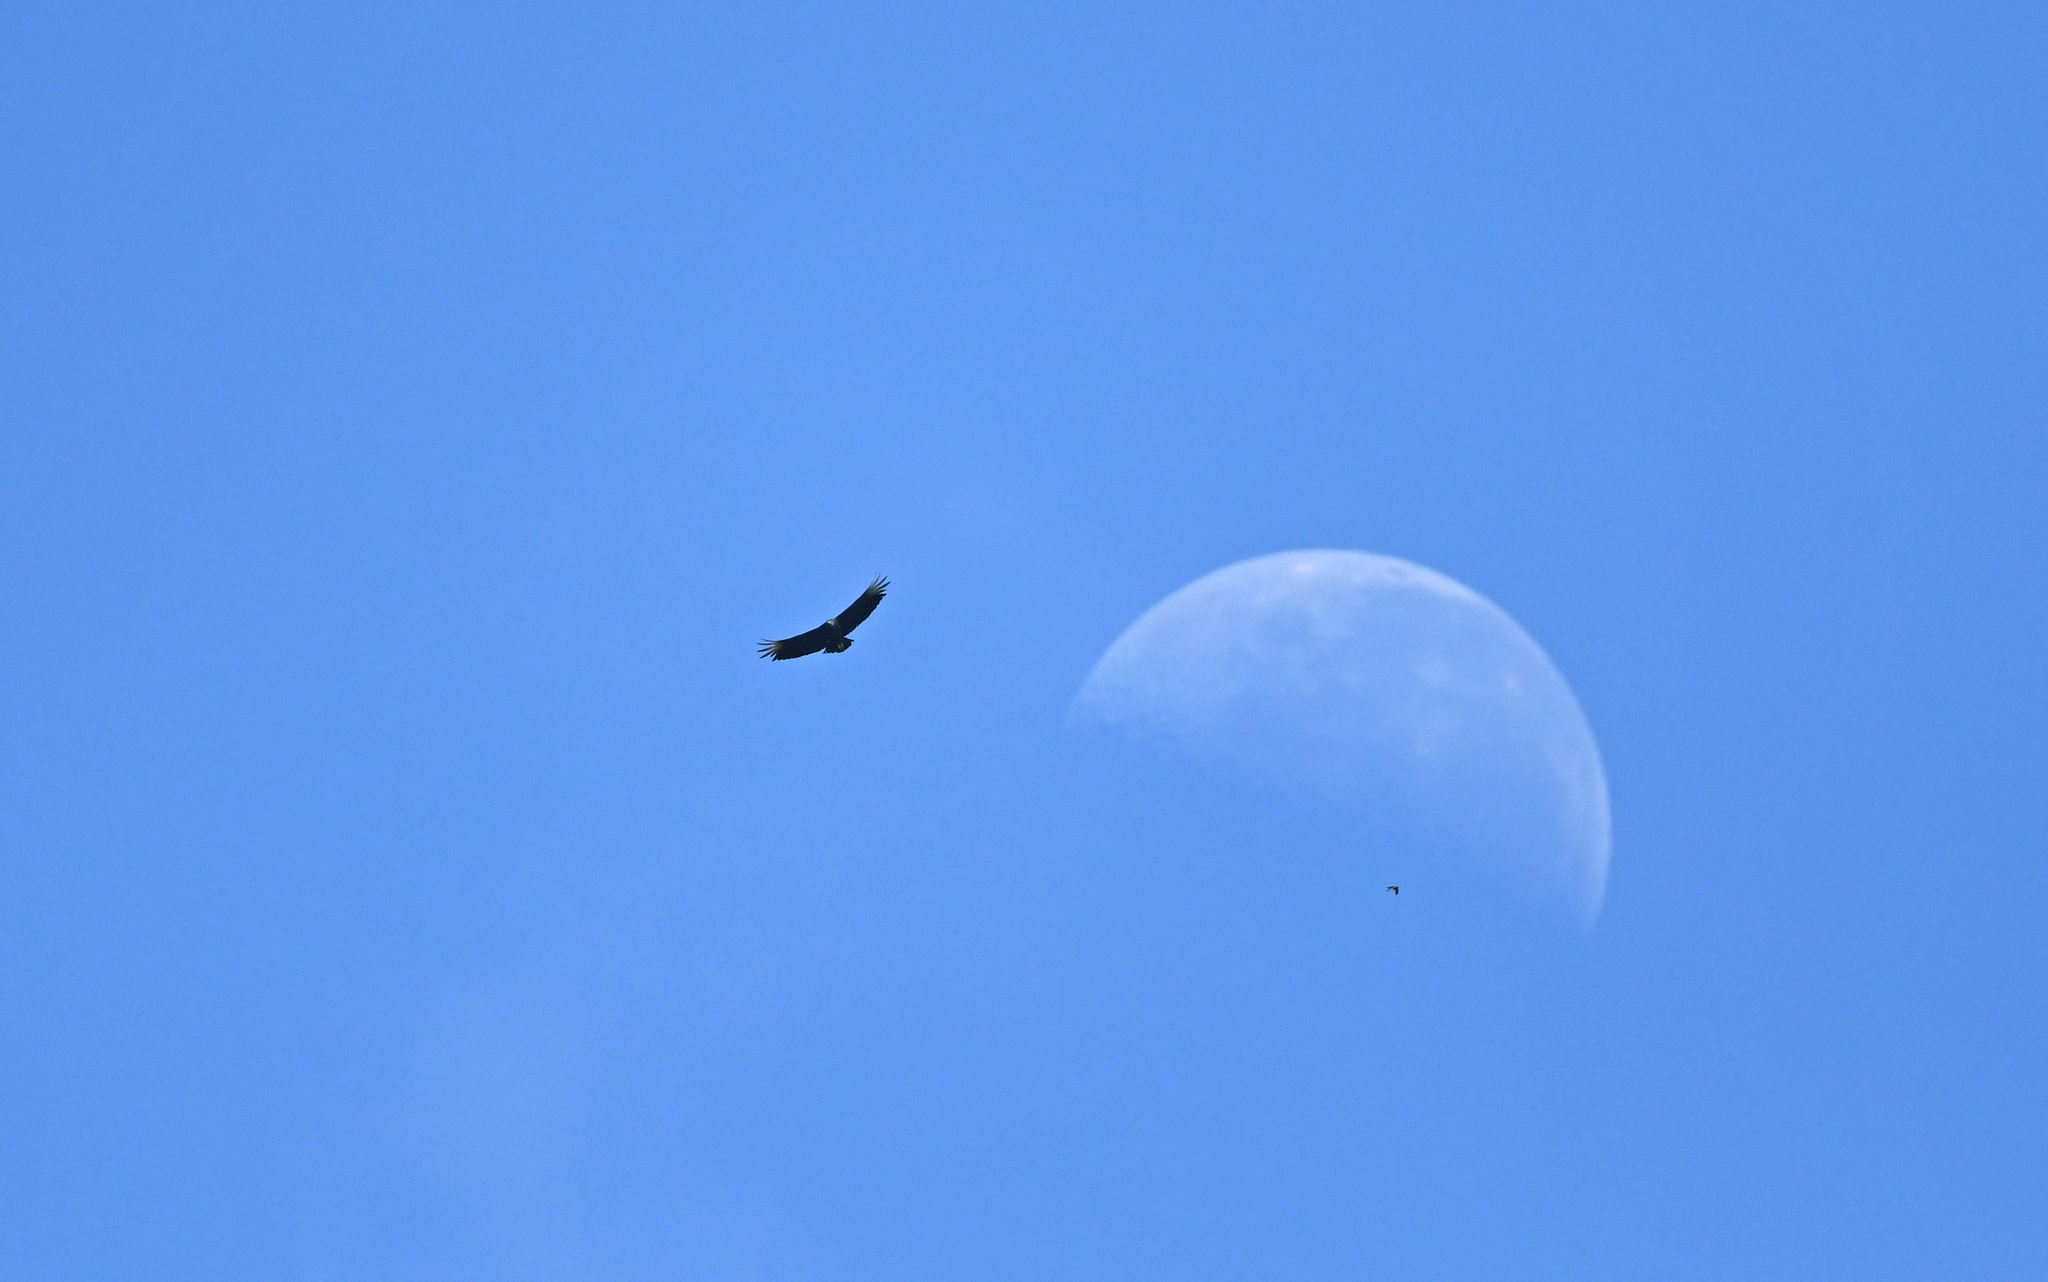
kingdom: Animalia
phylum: Chordata
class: Aves
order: Accipitriformes
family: Cathartidae
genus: Coragyps
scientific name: Coragyps atratus
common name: Black vulture
